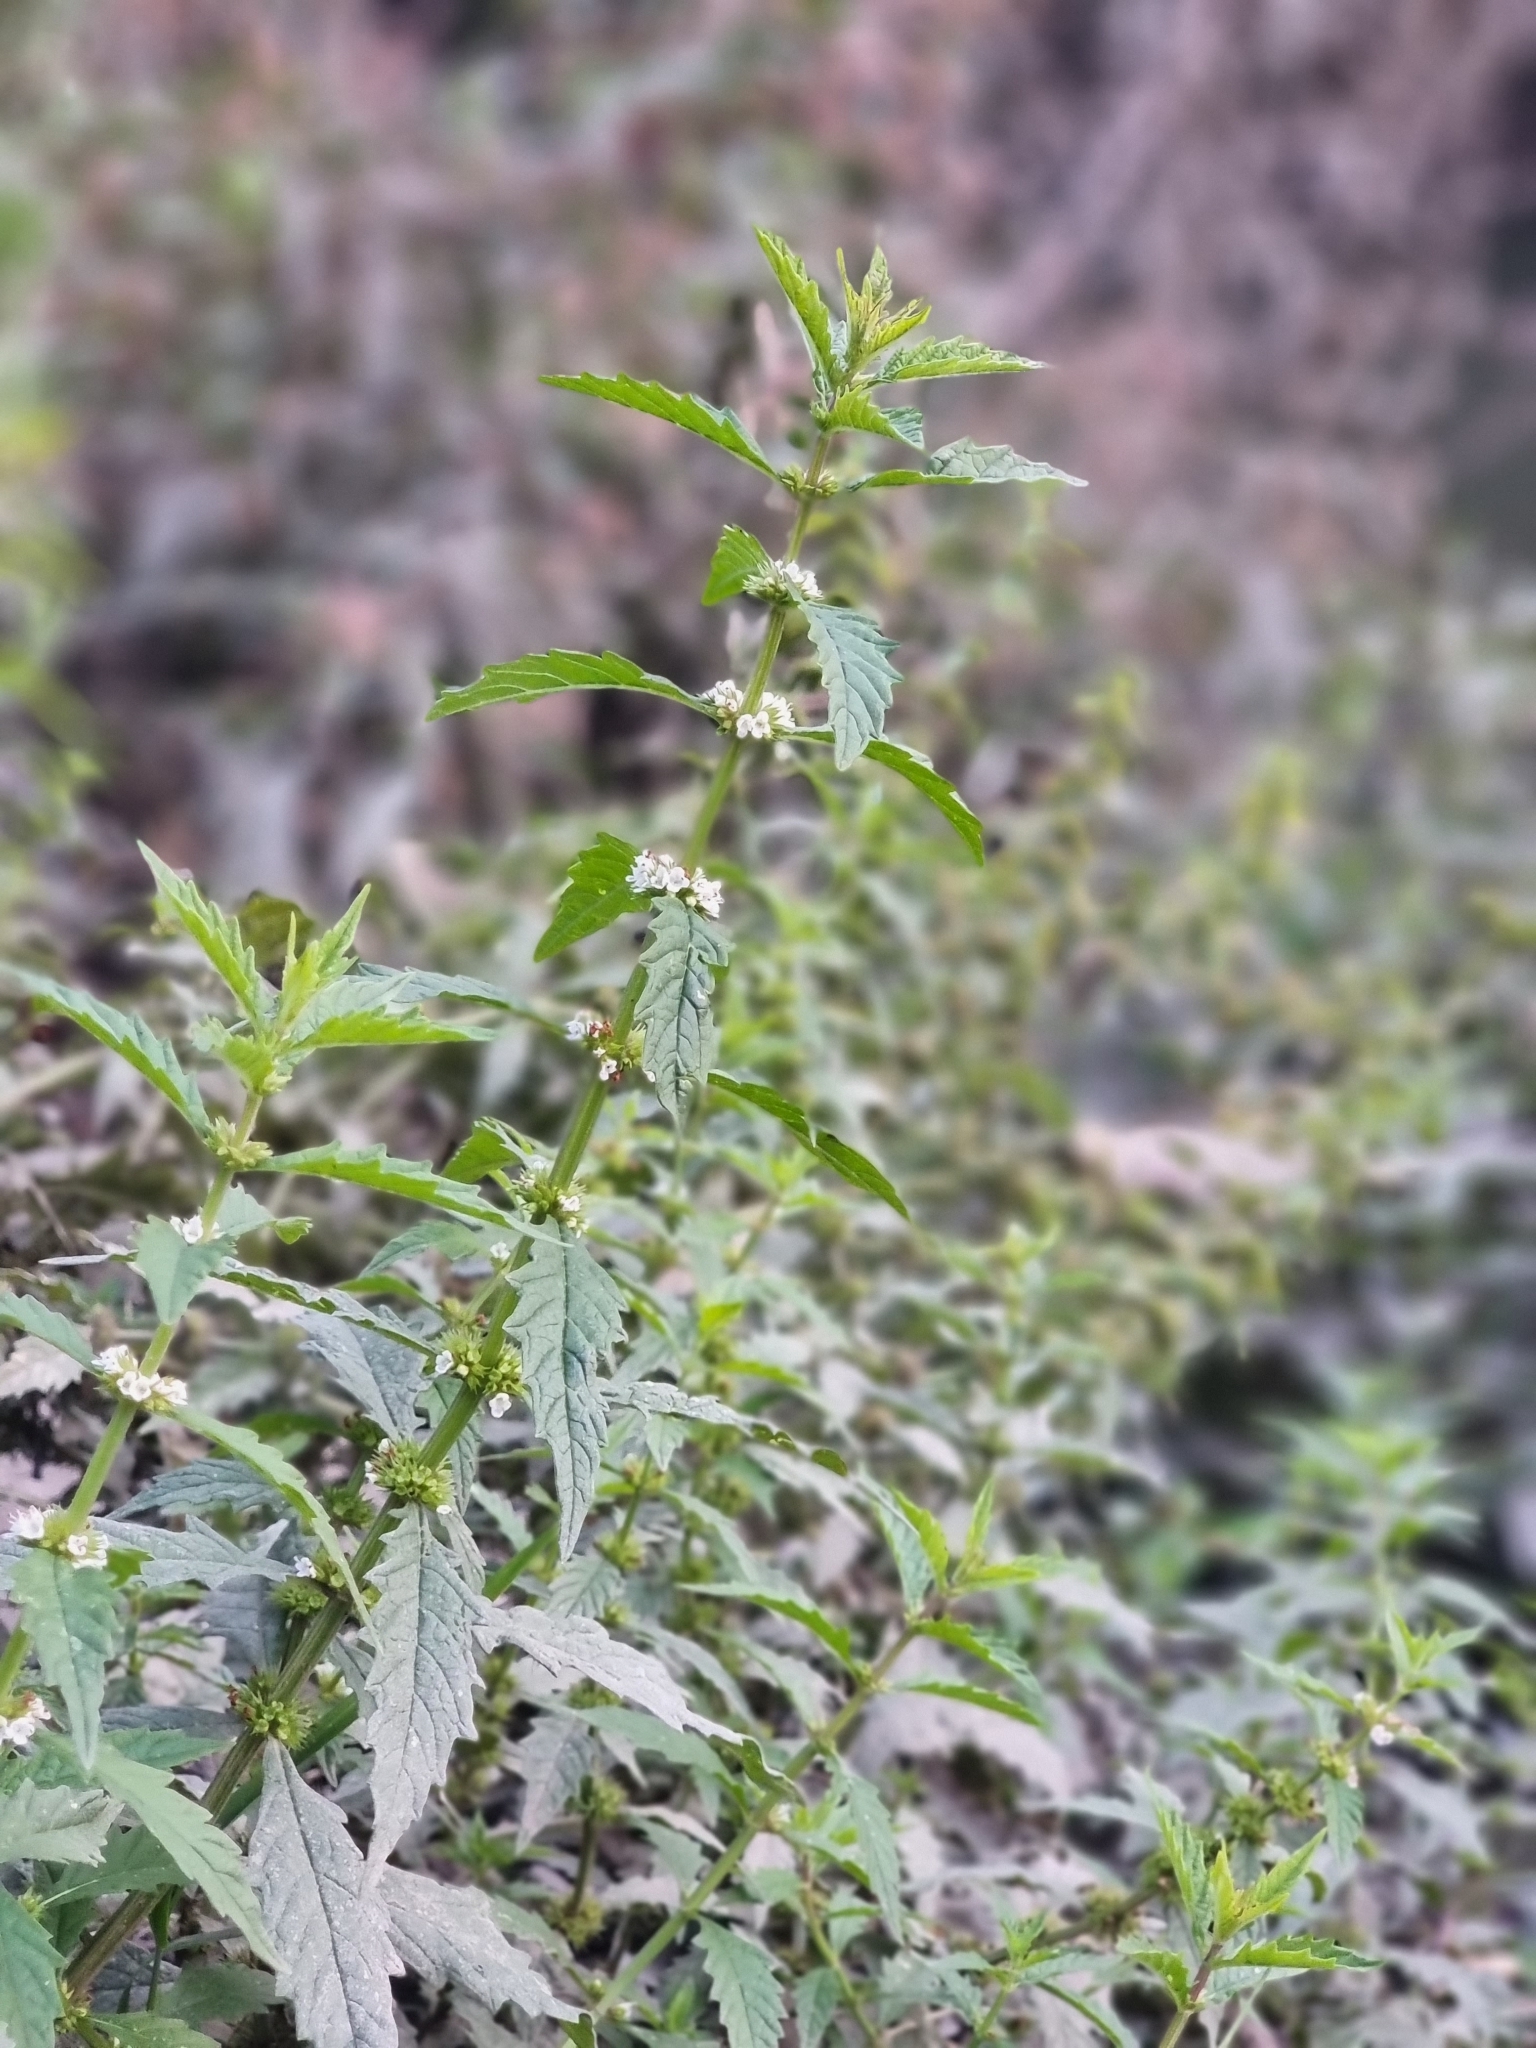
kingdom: Plantae
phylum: Tracheophyta
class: Magnoliopsida
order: Lamiales
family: Lamiaceae
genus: Lycopus
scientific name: Lycopus europaeus
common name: European bugleweed
